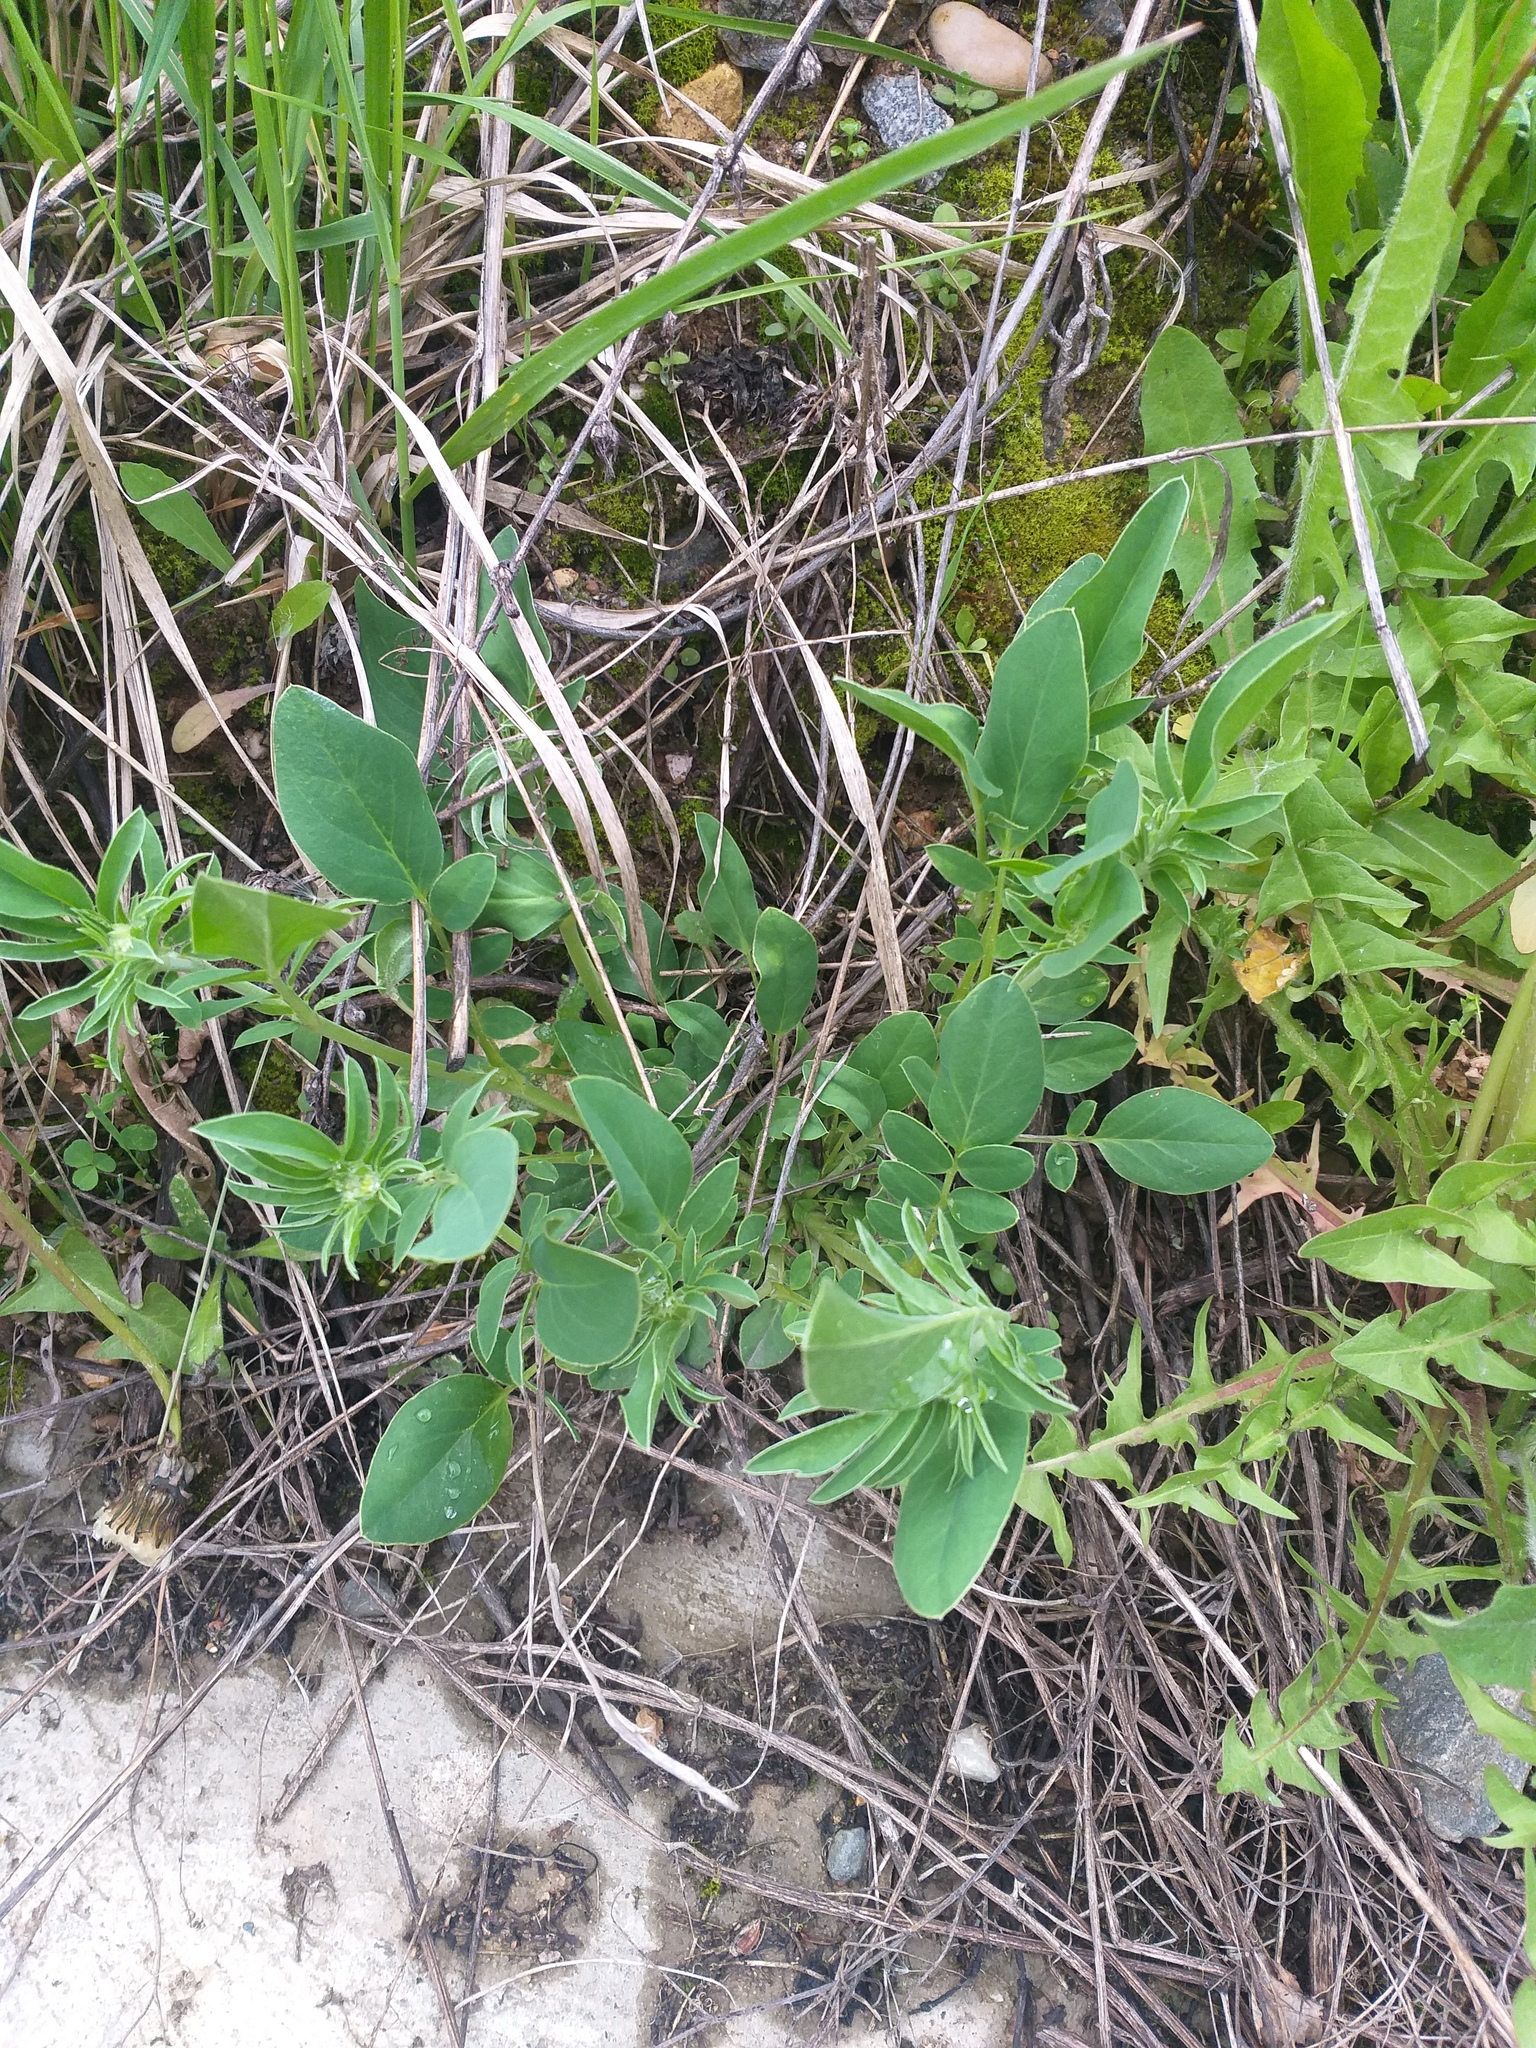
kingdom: Plantae
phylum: Tracheophyta
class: Magnoliopsida
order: Fabales
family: Fabaceae
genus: Anthyllis
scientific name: Anthyllis vulneraria
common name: Kidney vetch
